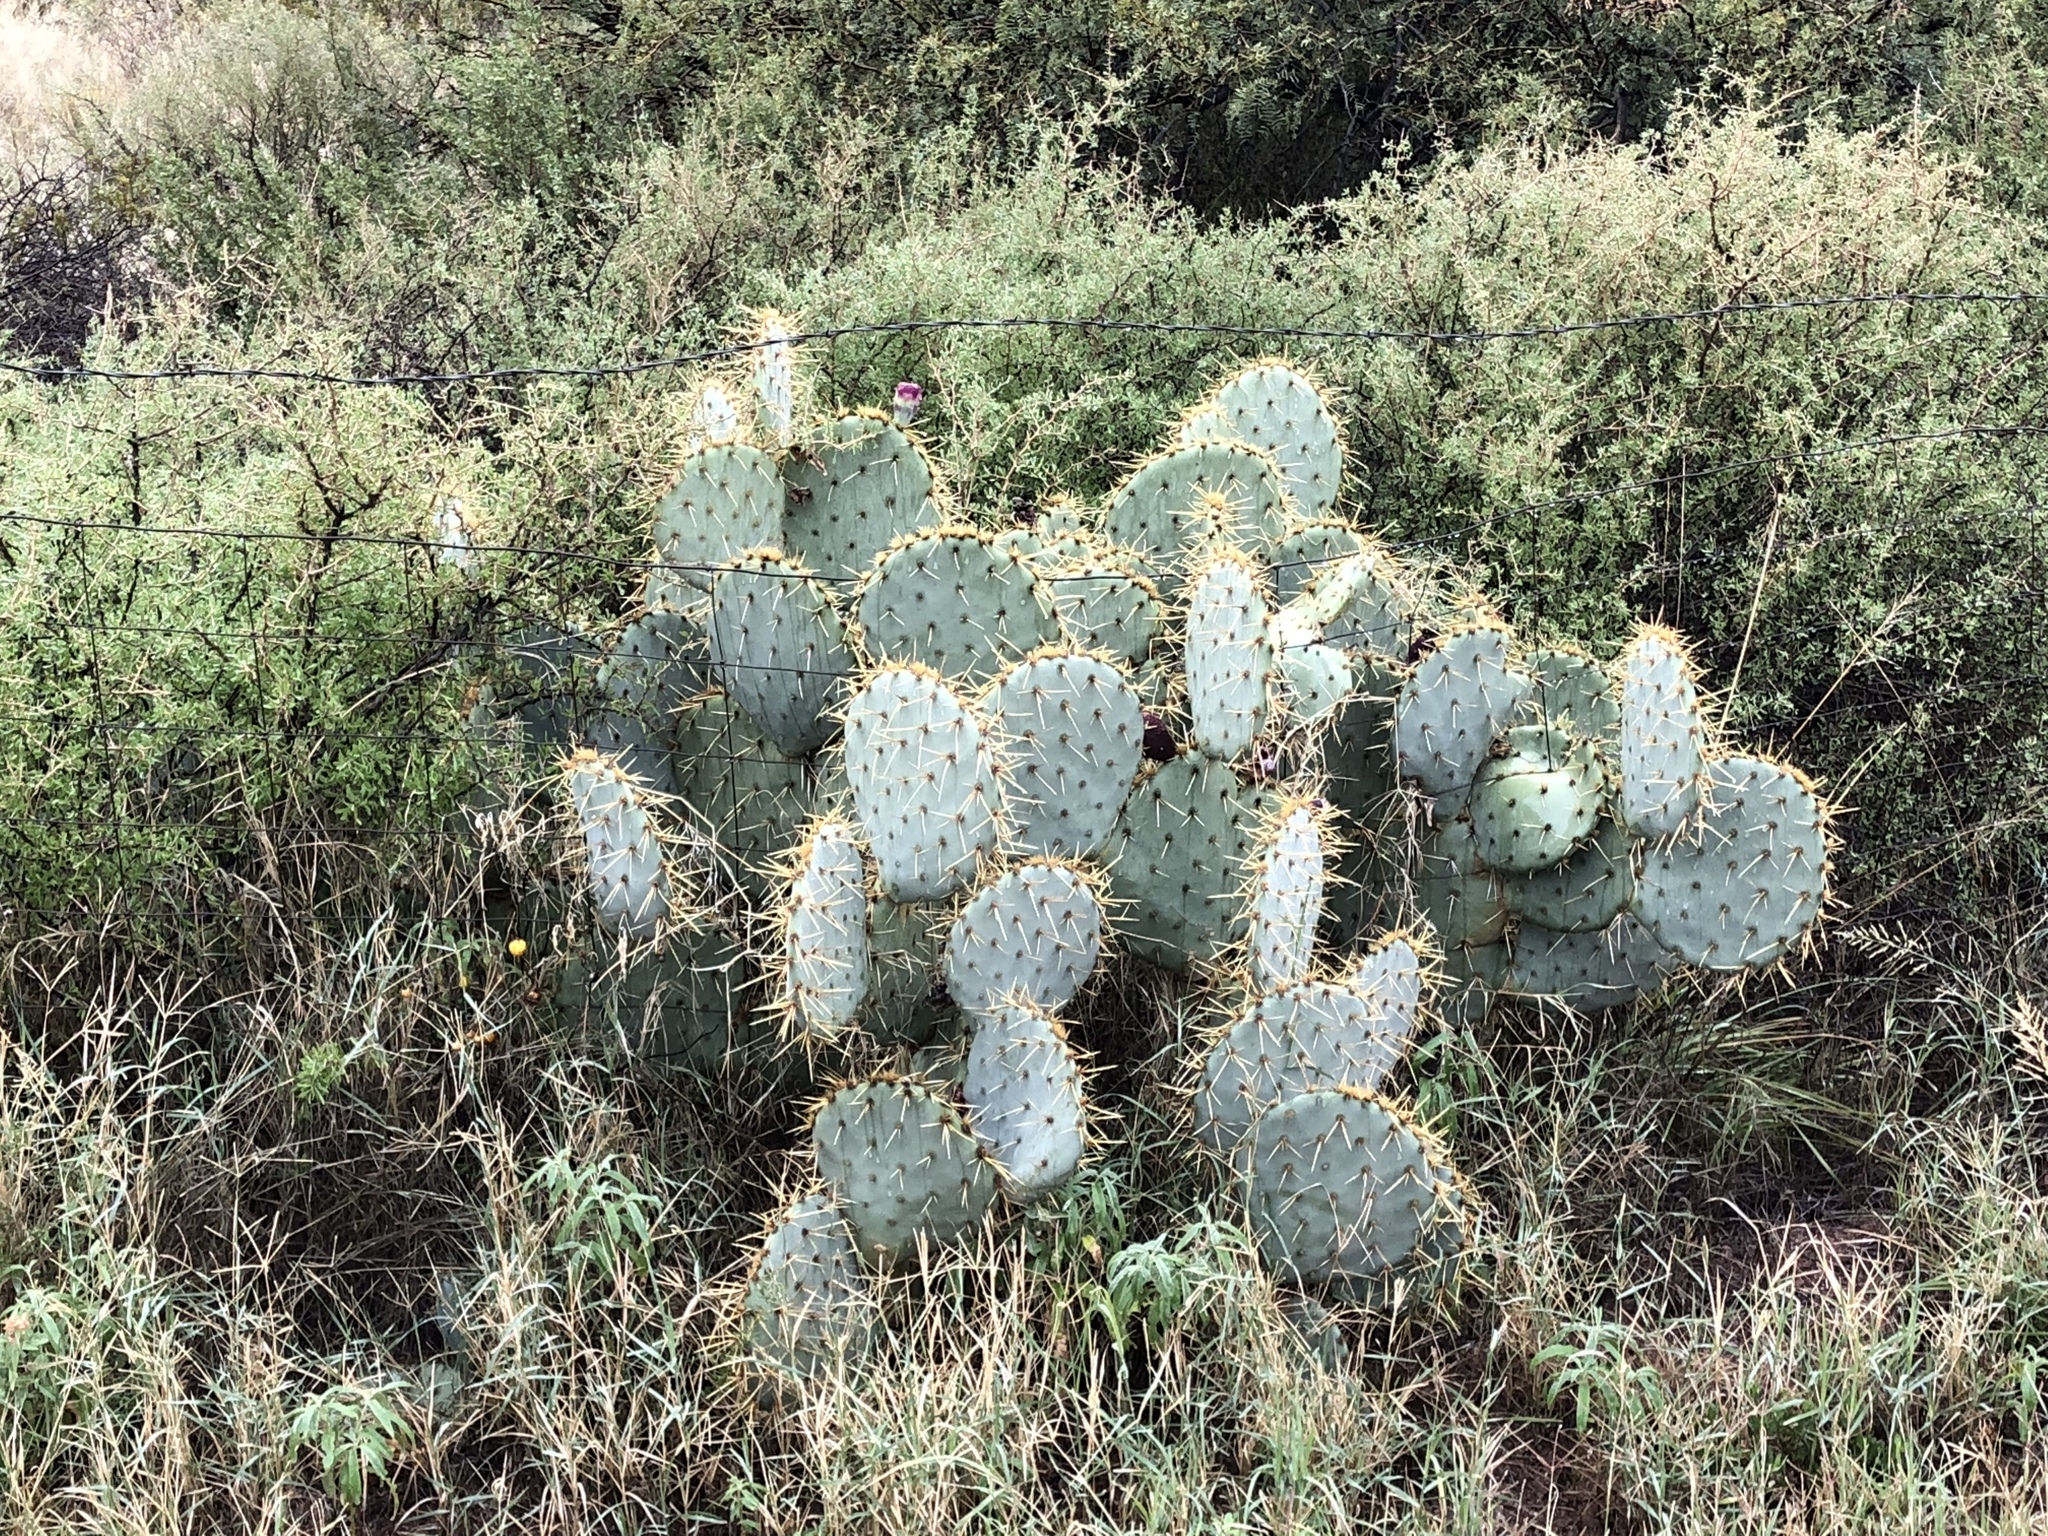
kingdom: Plantae
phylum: Tracheophyta
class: Magnoliopsida
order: Caryophyllales
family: Cactaceae
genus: Opuntia
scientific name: Opuntia phaeacantha
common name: New mexico prickly-pear
